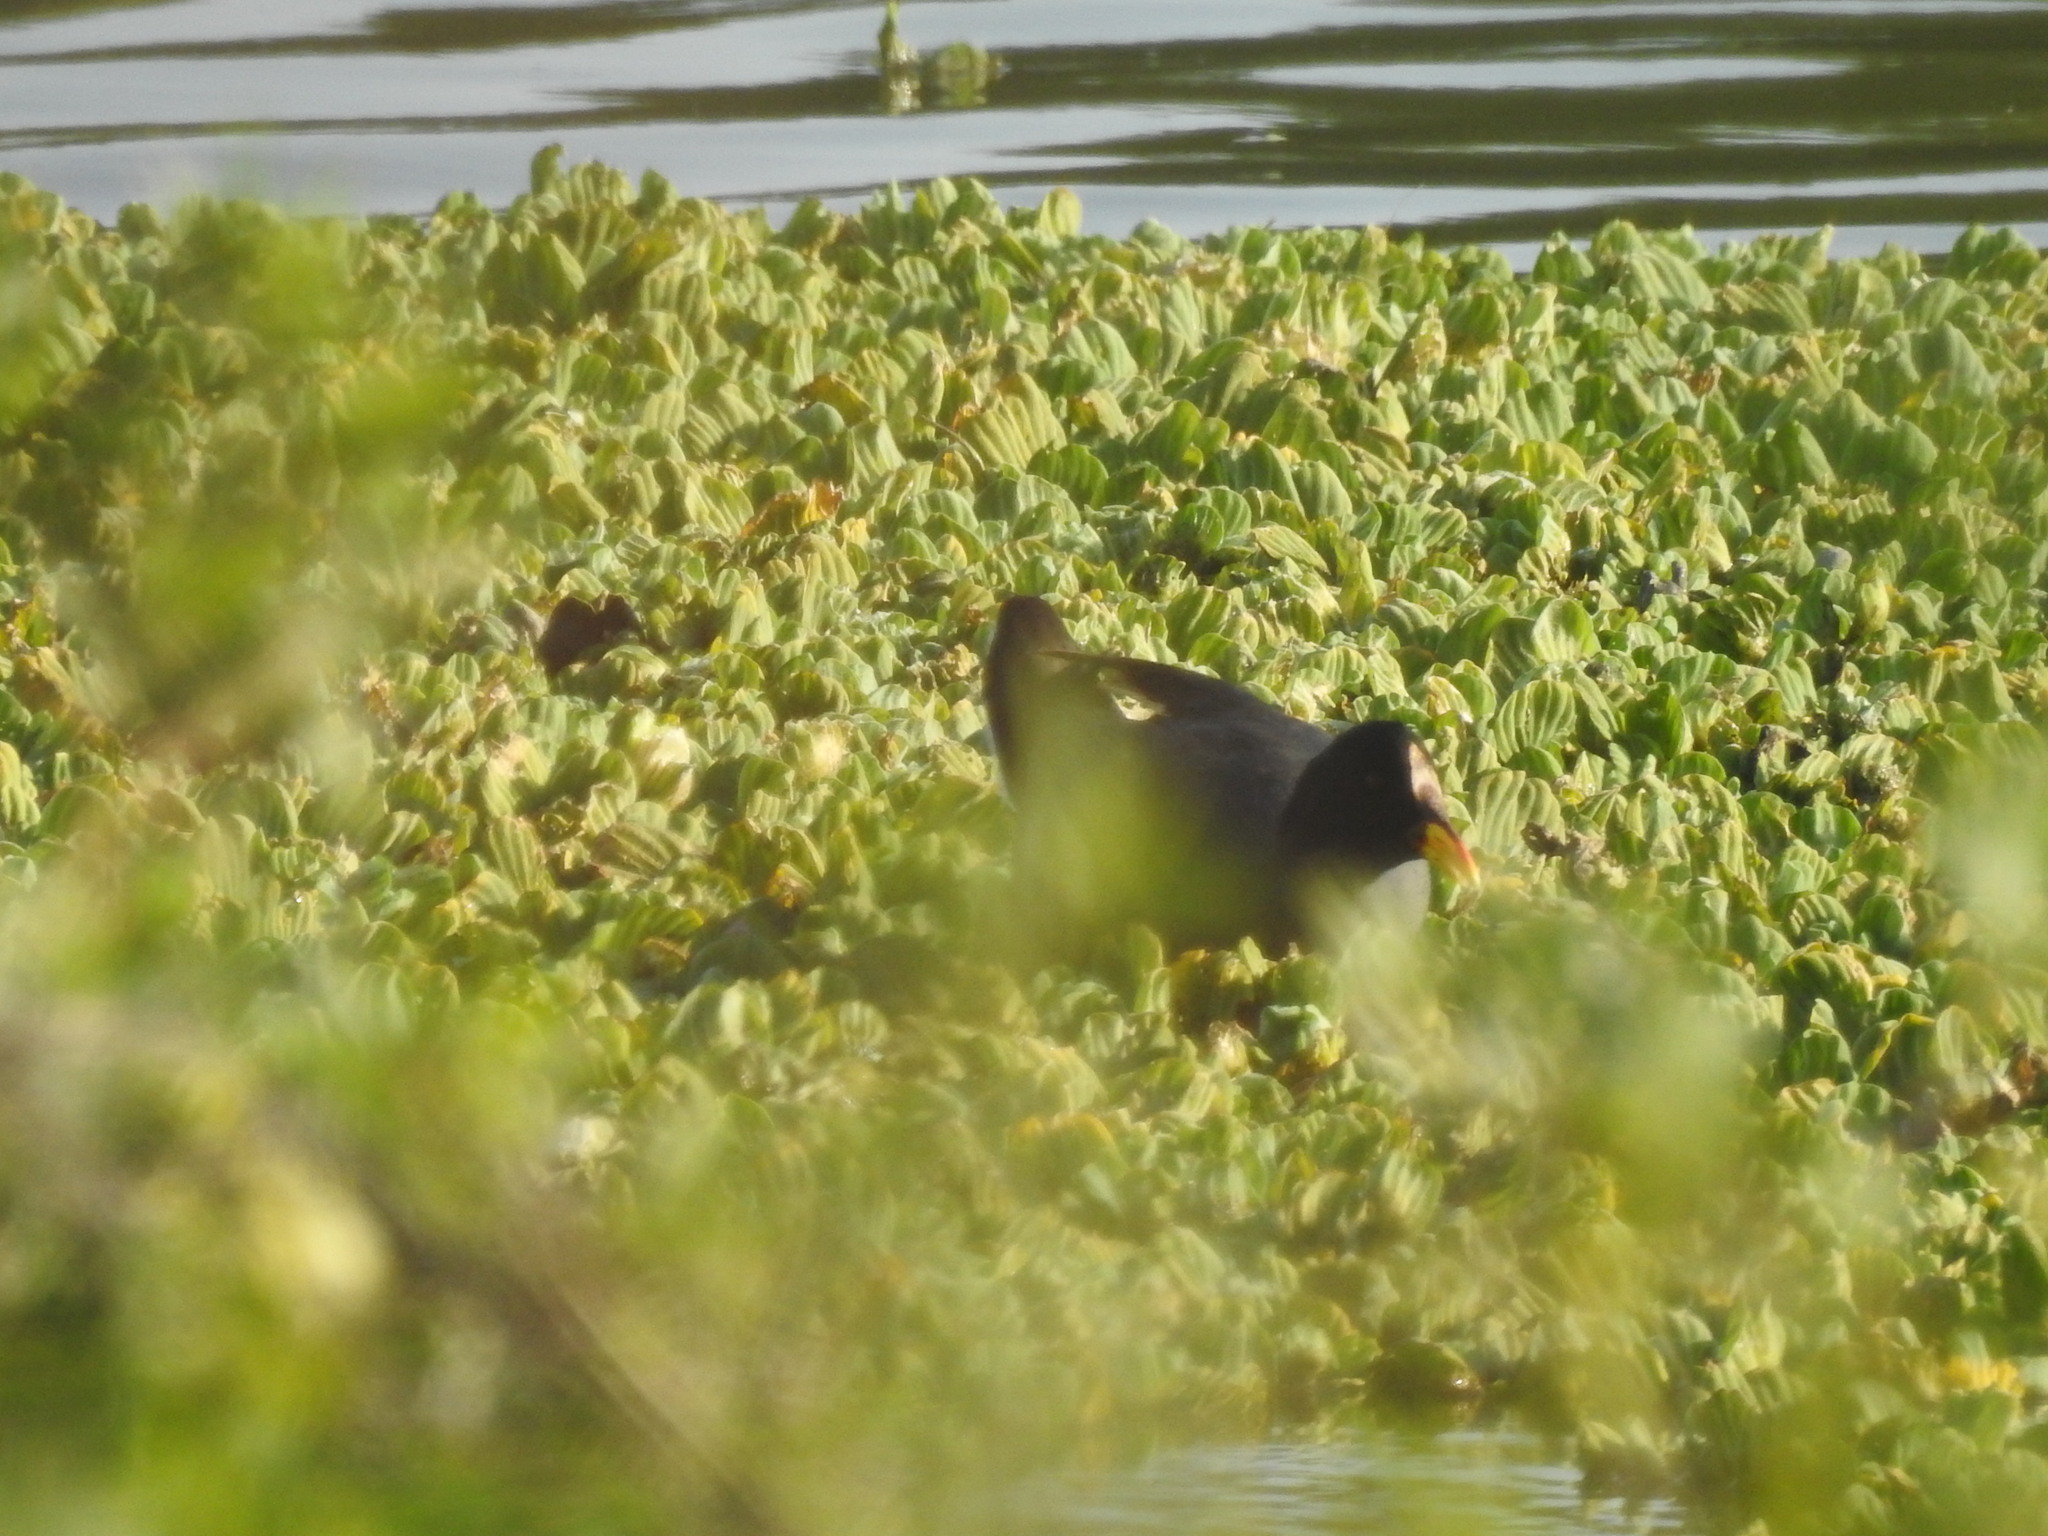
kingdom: Animalia
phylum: Chordata
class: Aves
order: Gruiformes
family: Rallidae
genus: Fulica
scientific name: Fulica rufifrons
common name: Red-fronted coot
